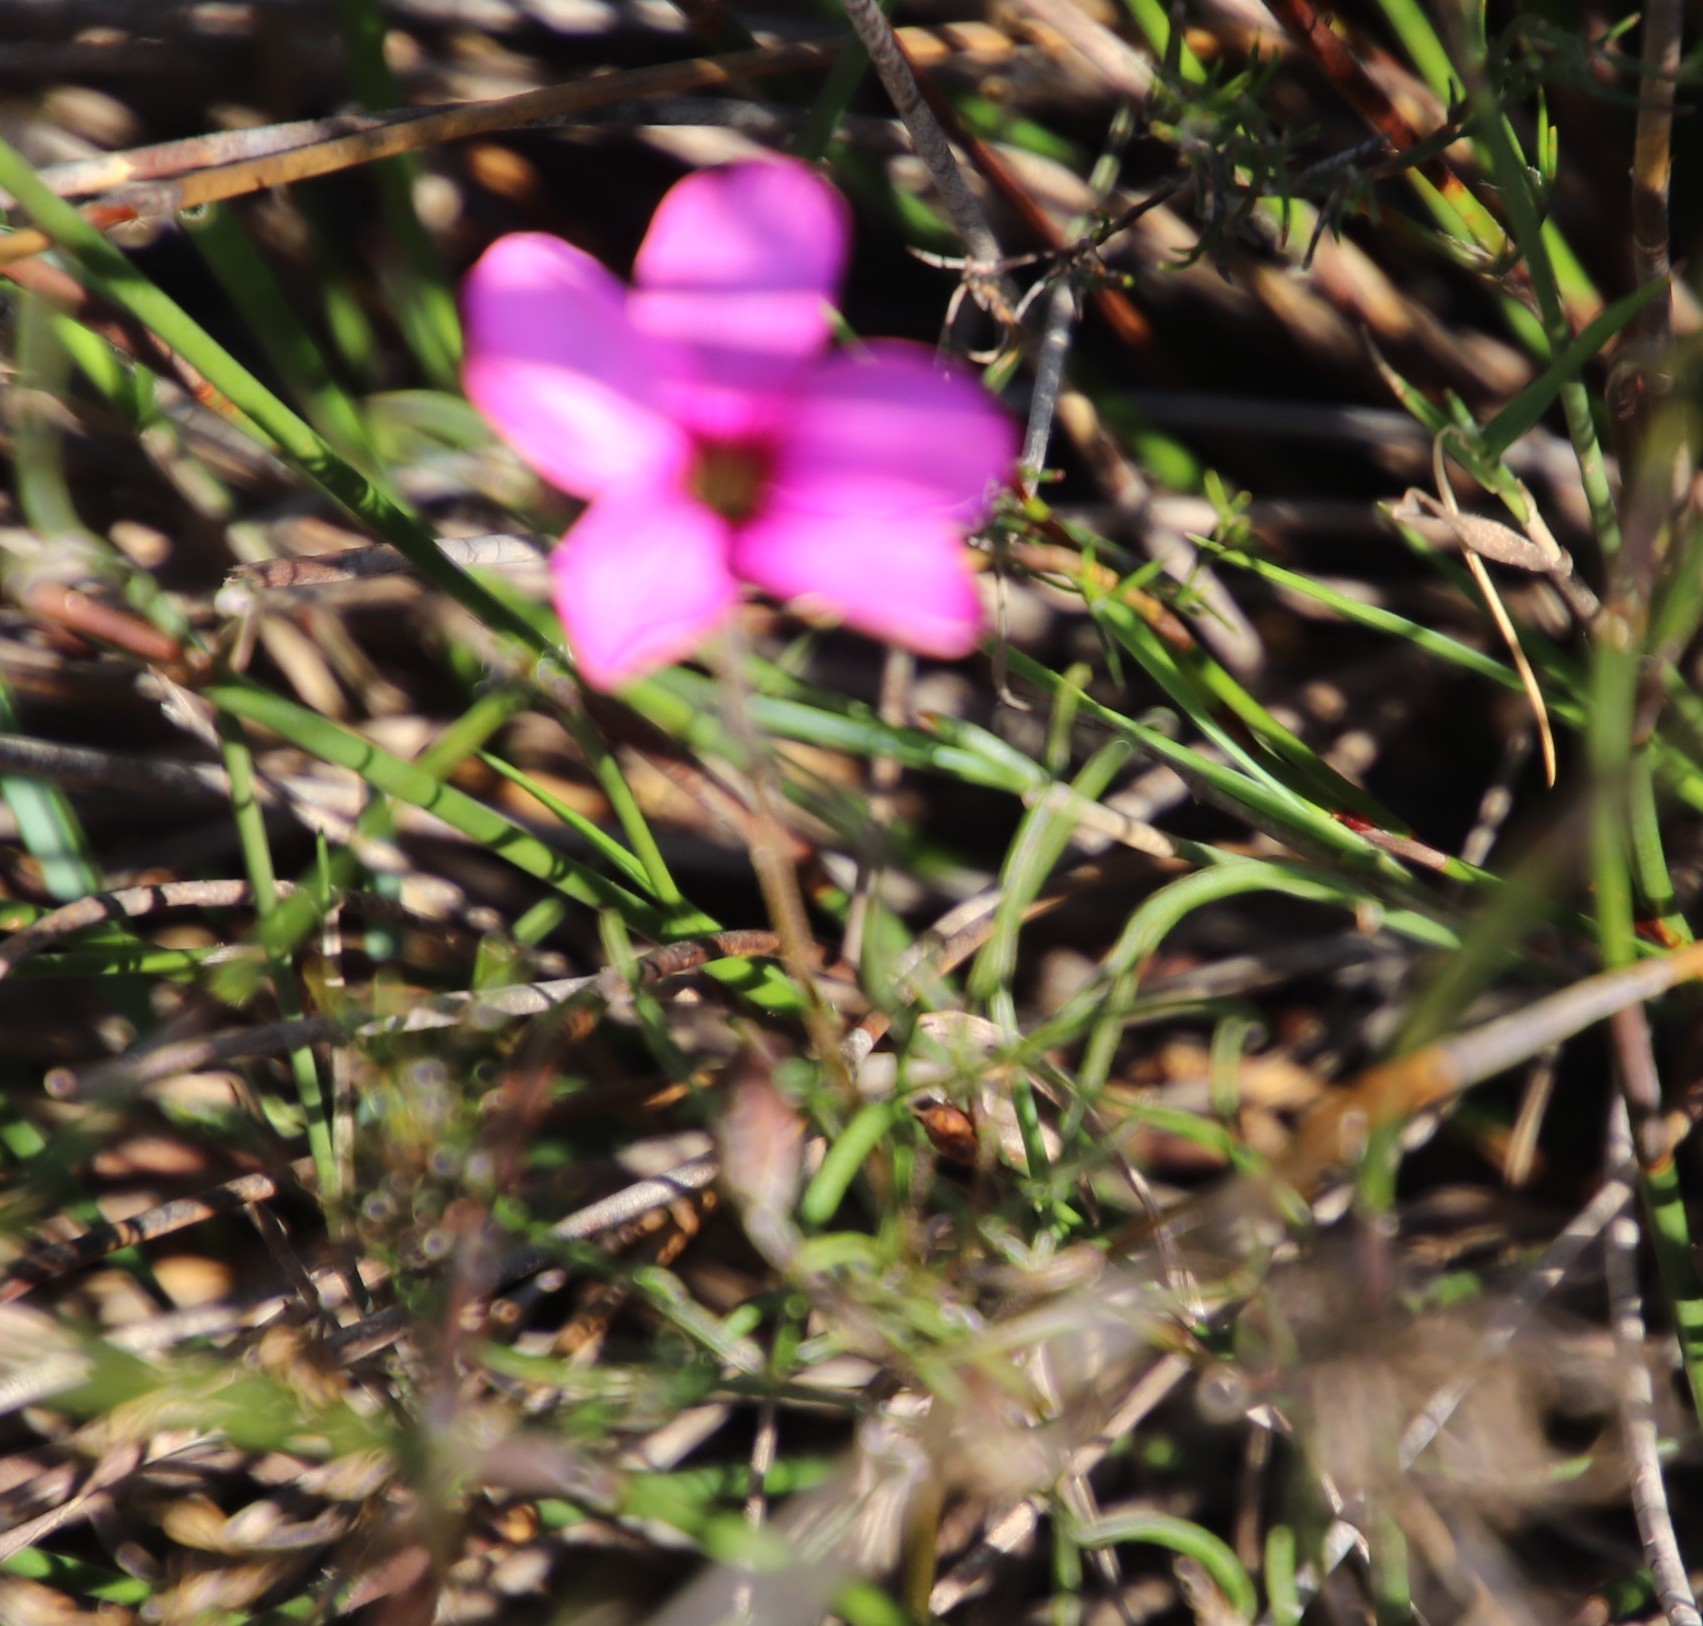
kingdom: Plantae
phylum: Tracheophyta
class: Magnoliopsida
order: Oxalidales
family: Oxalidaceae
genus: Oxalis
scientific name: Oxalis polyphylla
